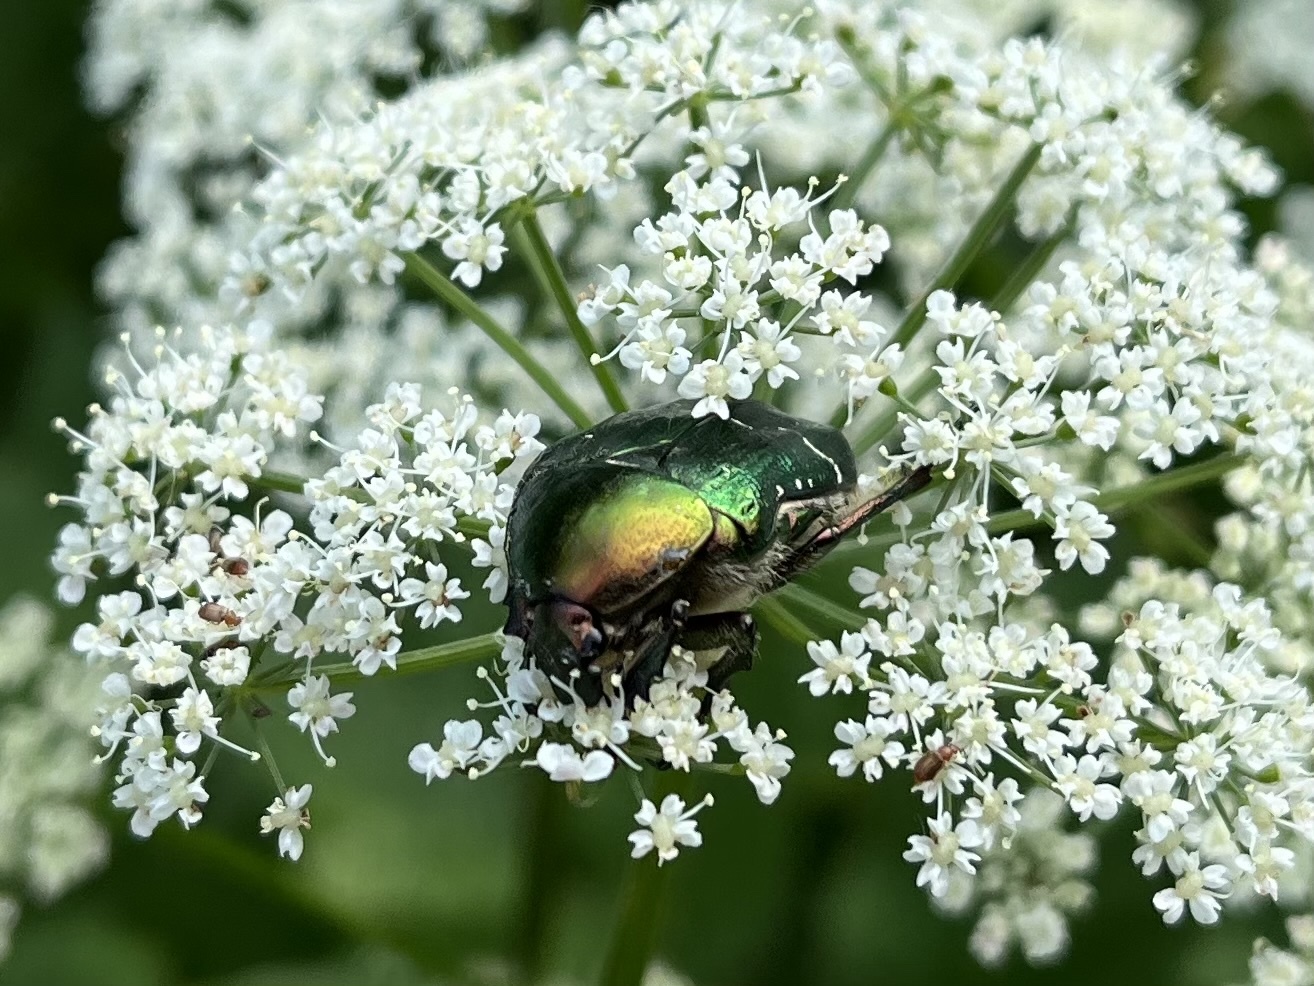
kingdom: Animalia
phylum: Arthropoda
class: Insecta
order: Coleoptera
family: Scarabaeidae
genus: Cetonia
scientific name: Cetonia aurata
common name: Rose chafer
